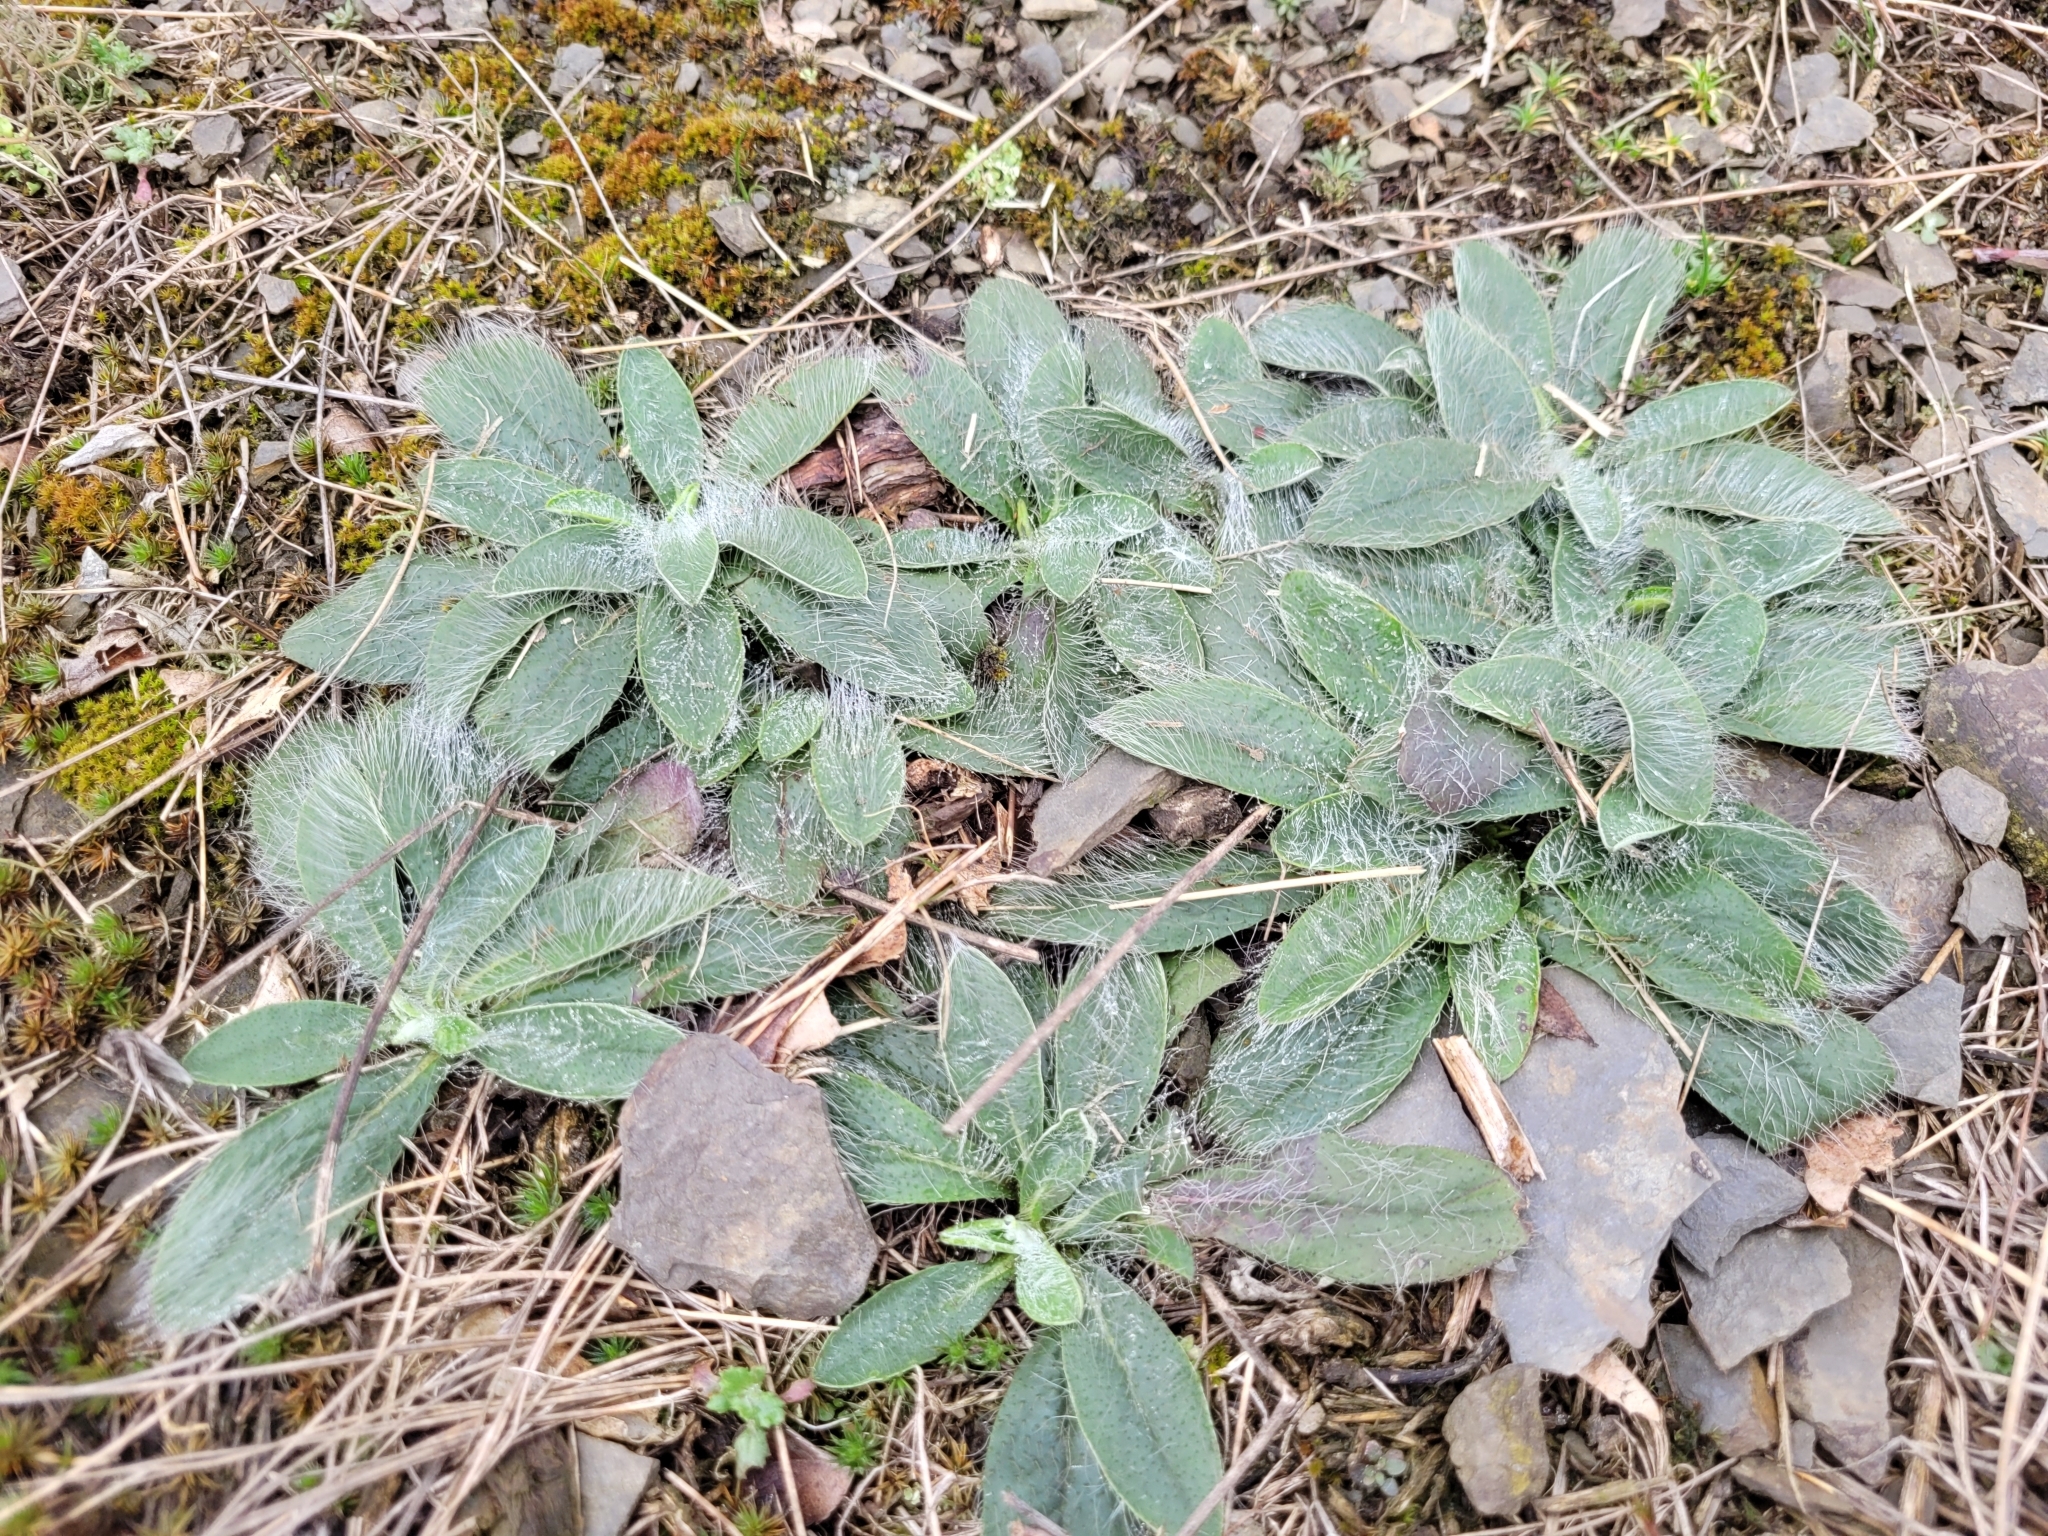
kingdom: Plantae
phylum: Tracheophyta
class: Magnoliopsida
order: Asterales
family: Asteraceae
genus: Pilosella
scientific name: Pilosella officinarum
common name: Mouse-ear hawkweed
